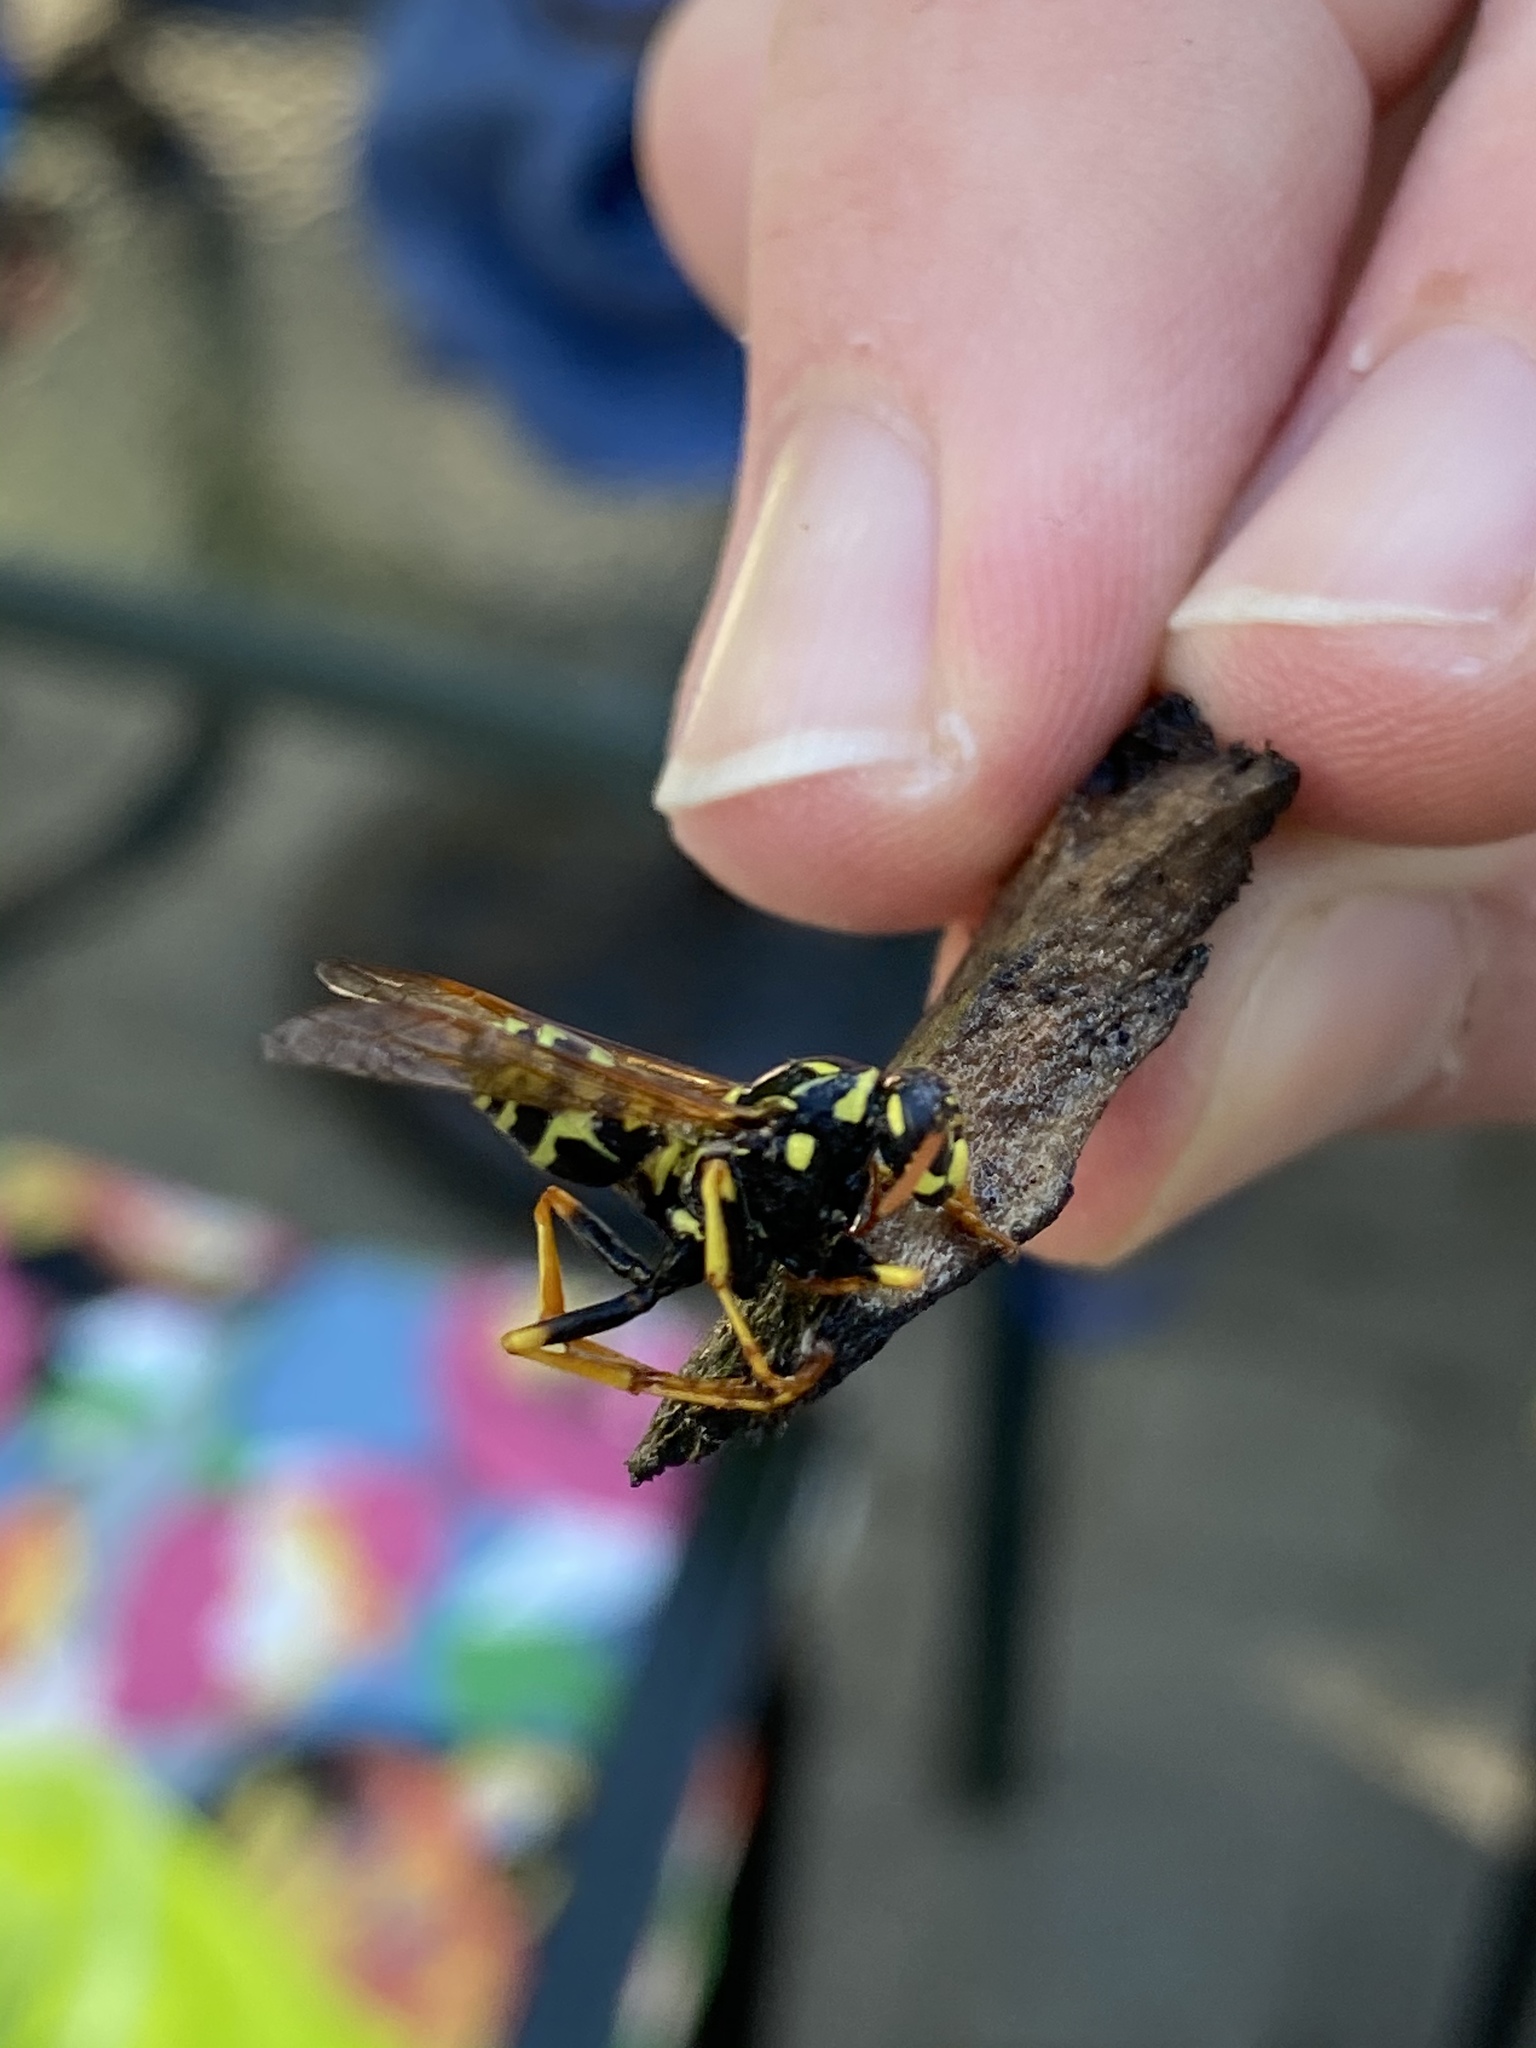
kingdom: Animalia
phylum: Arthropoda
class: Insecta
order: Hymenoptera
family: Eumenidae
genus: Polistes
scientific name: Polistes dominula
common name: Paper wasp
